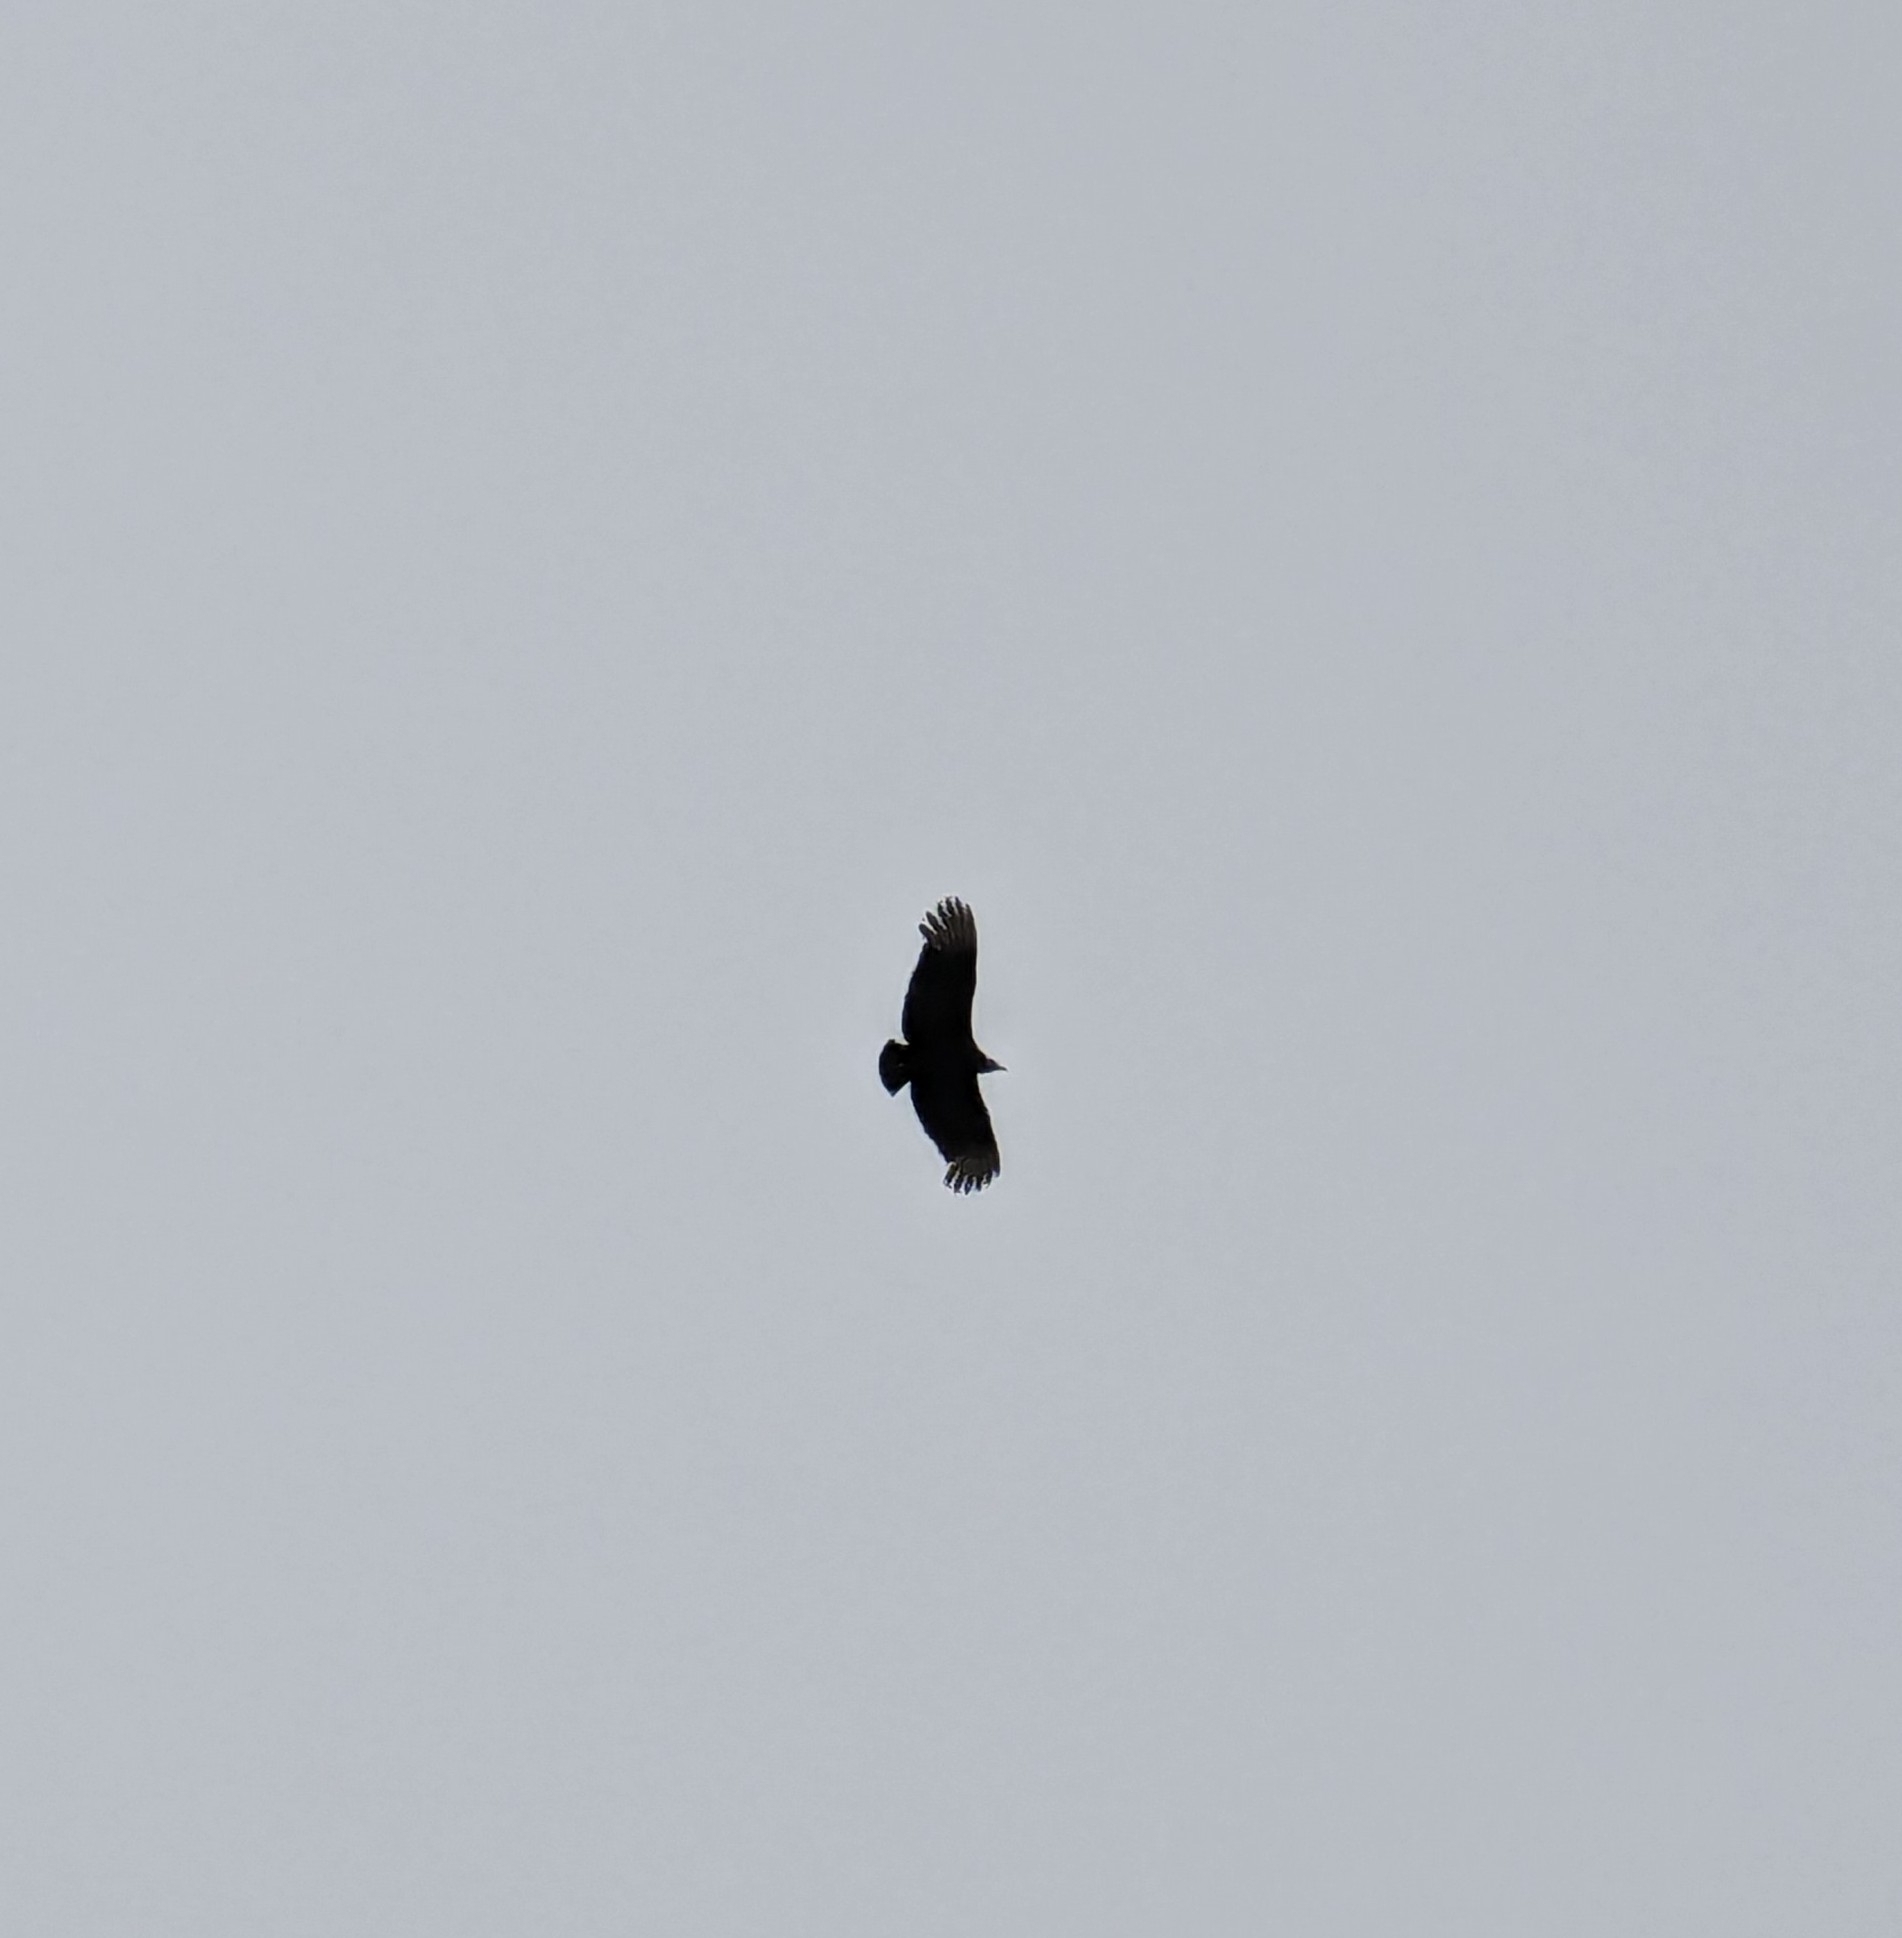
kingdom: Animalia
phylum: Chordata
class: Aves
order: Accipitriformes
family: Cathartidae
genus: Coragyps
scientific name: Coragyps atratus
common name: Black vulture
